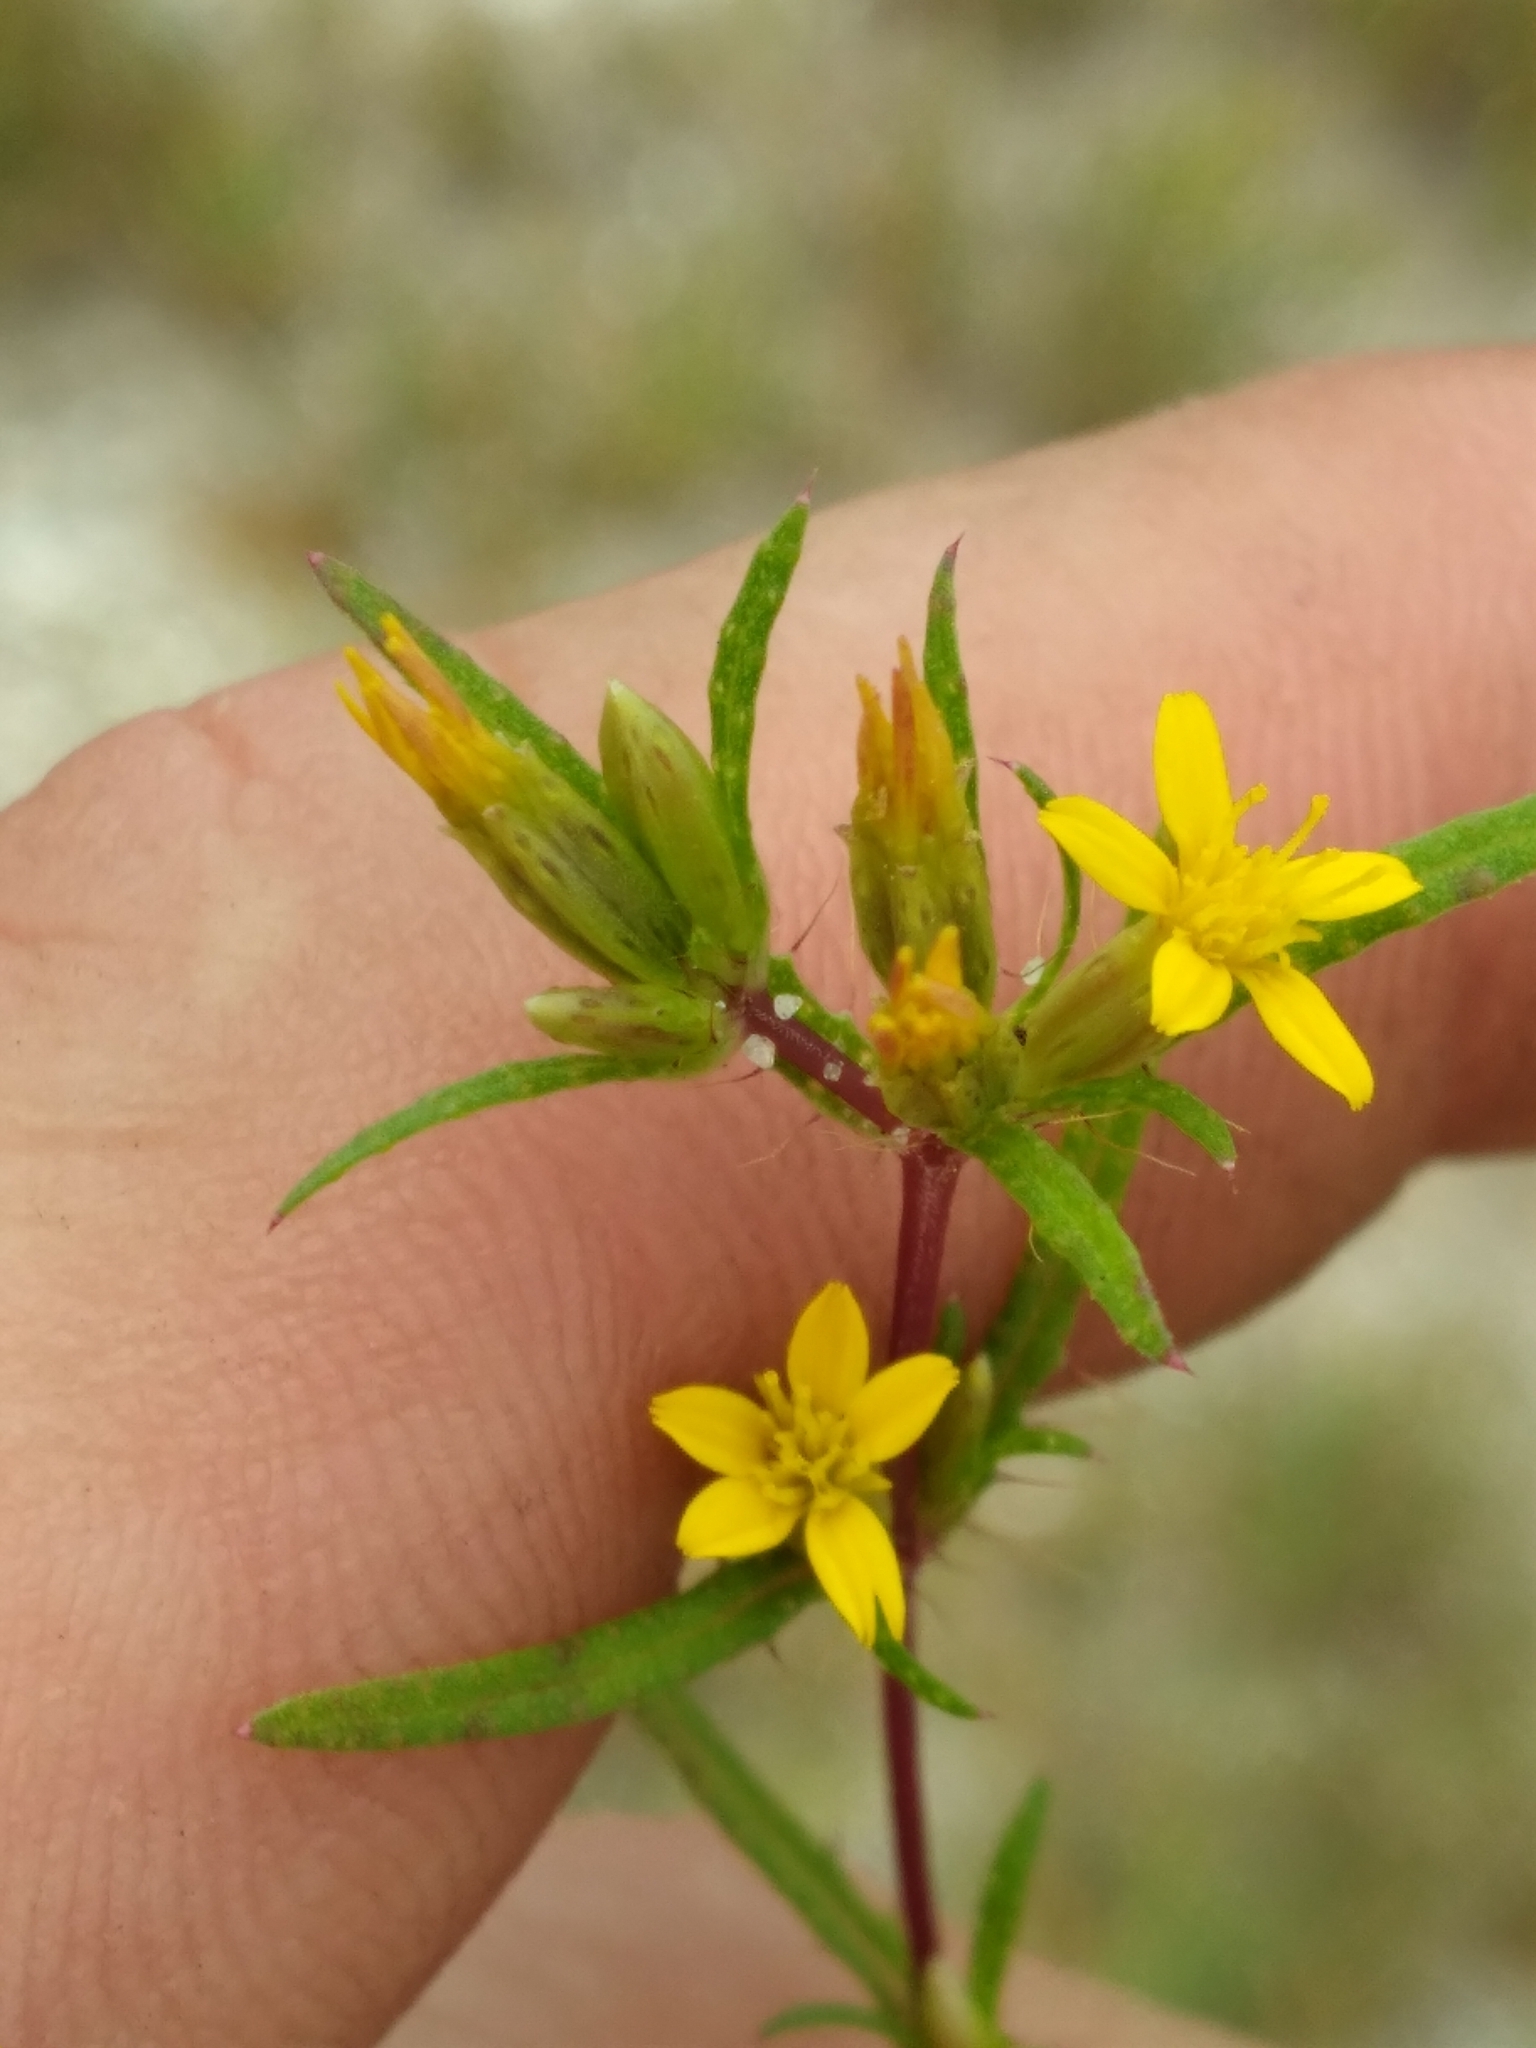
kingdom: Plantae
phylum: Tracheophyta
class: Magnoliopsida
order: Asterales
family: Asteraceae
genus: Pectis
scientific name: Pectis prostrata
